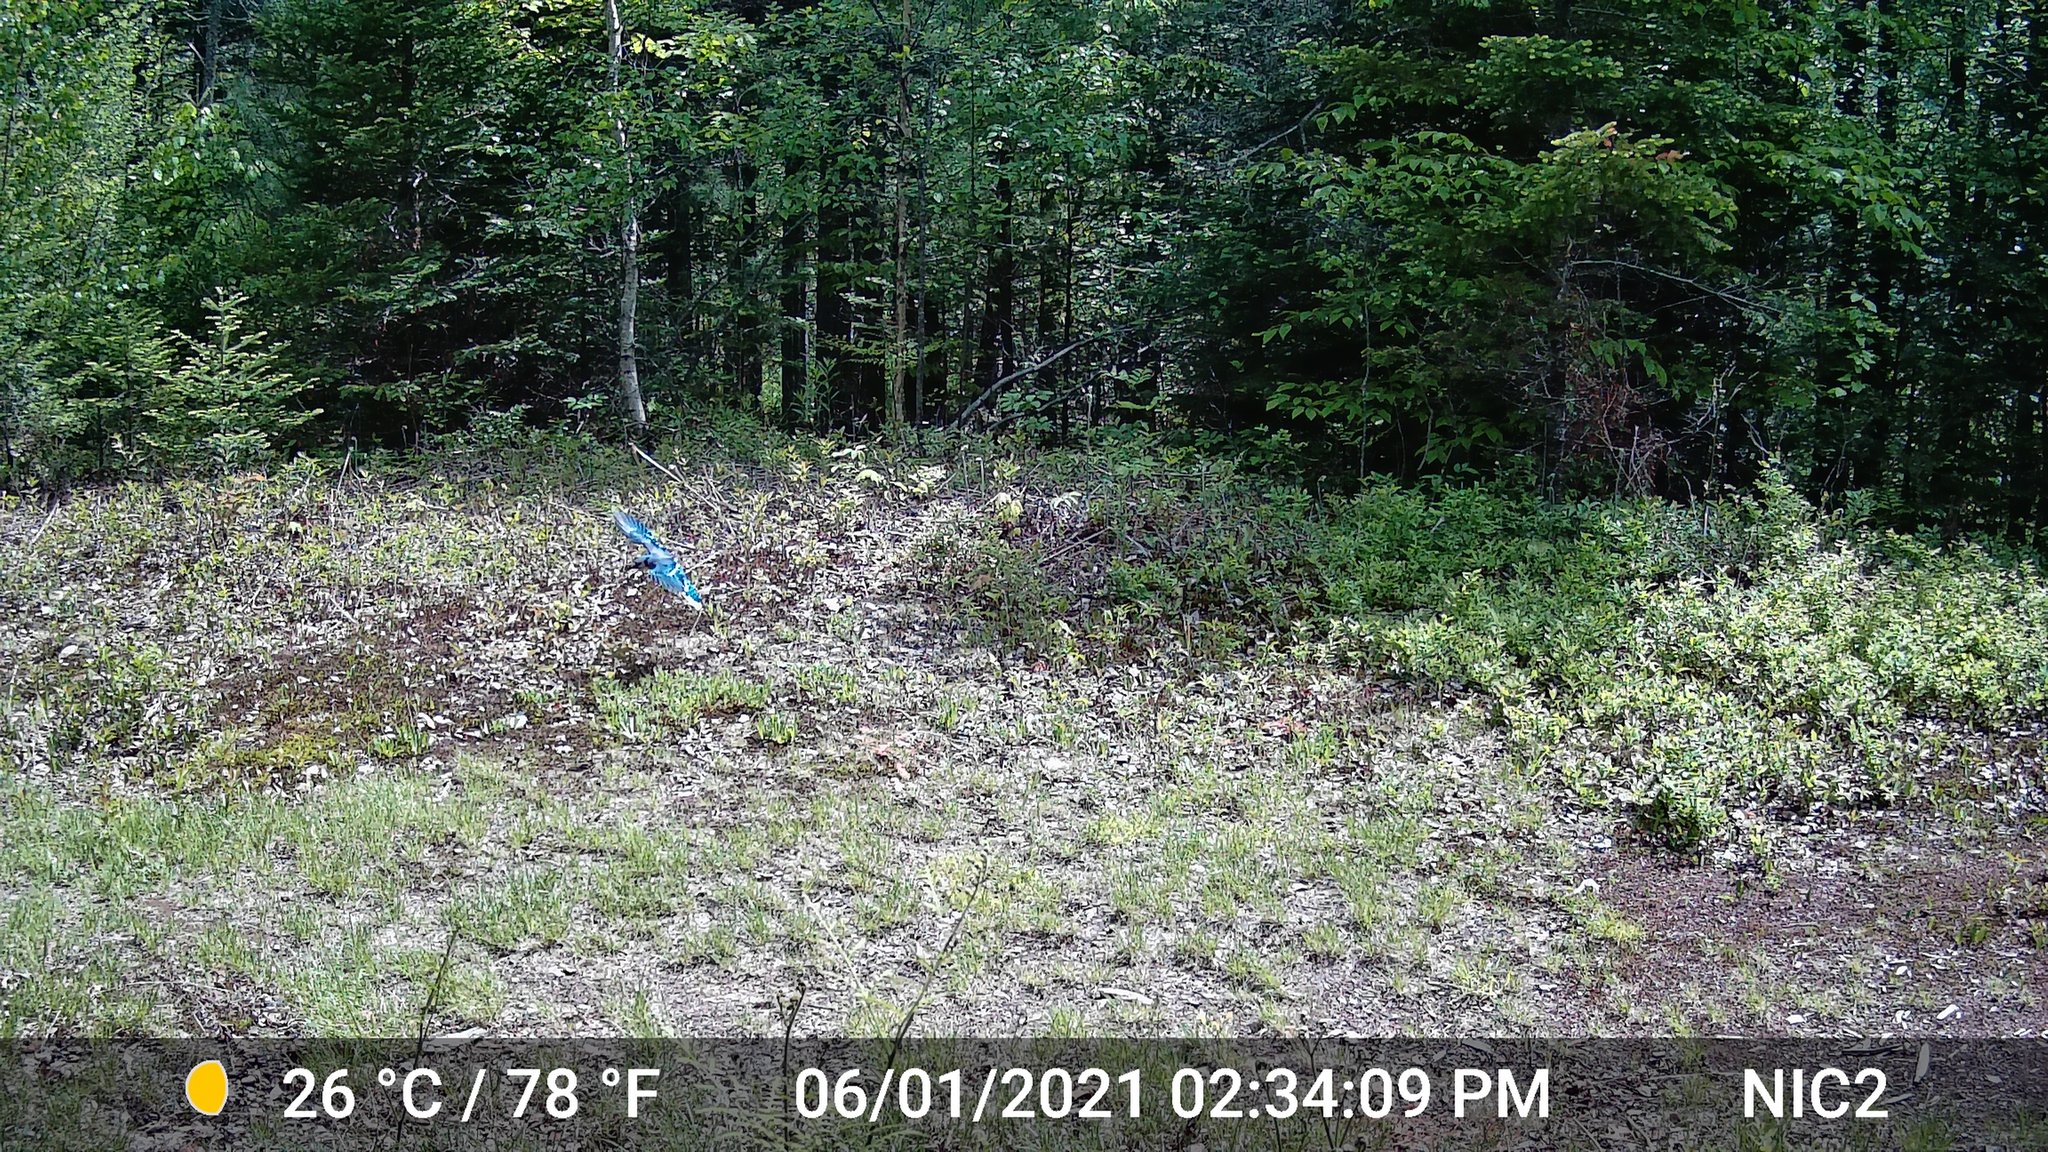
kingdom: Animalia
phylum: Chordata
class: Aves
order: Passeriformes
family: Corvidae
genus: Cyanocitta
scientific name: Cyanocitta cristata
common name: Blue jay
